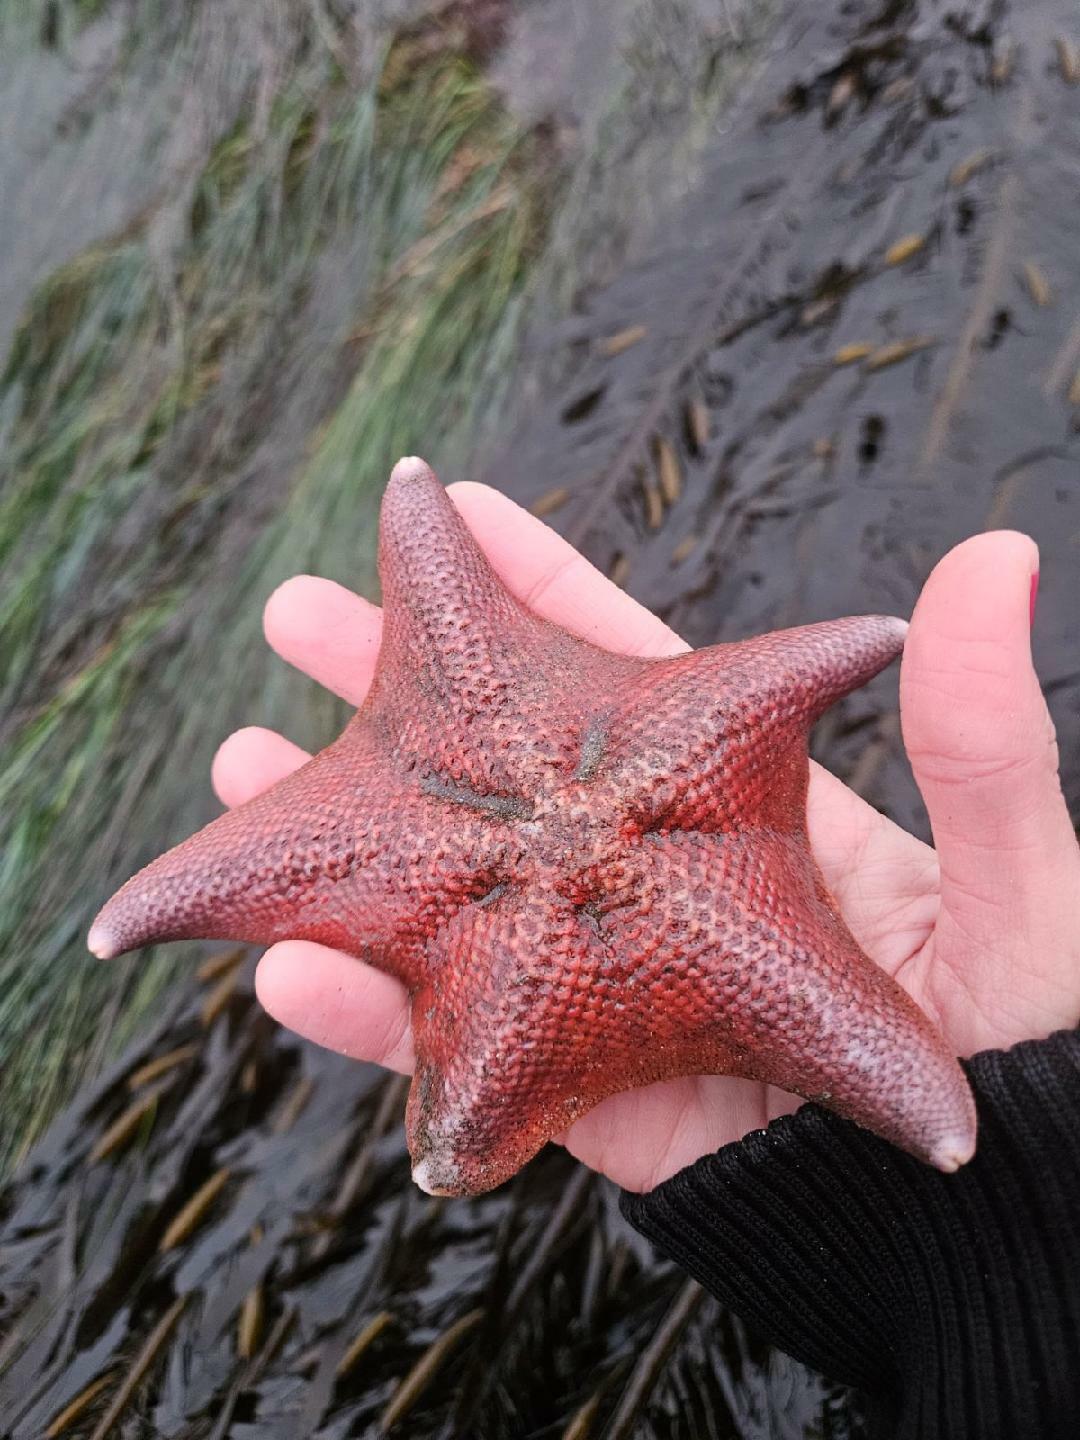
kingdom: Animalia
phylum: Echinodermata
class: Asteroidea
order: Valvatida
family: Asterinidae
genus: Patiria
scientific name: Patiria miniata
